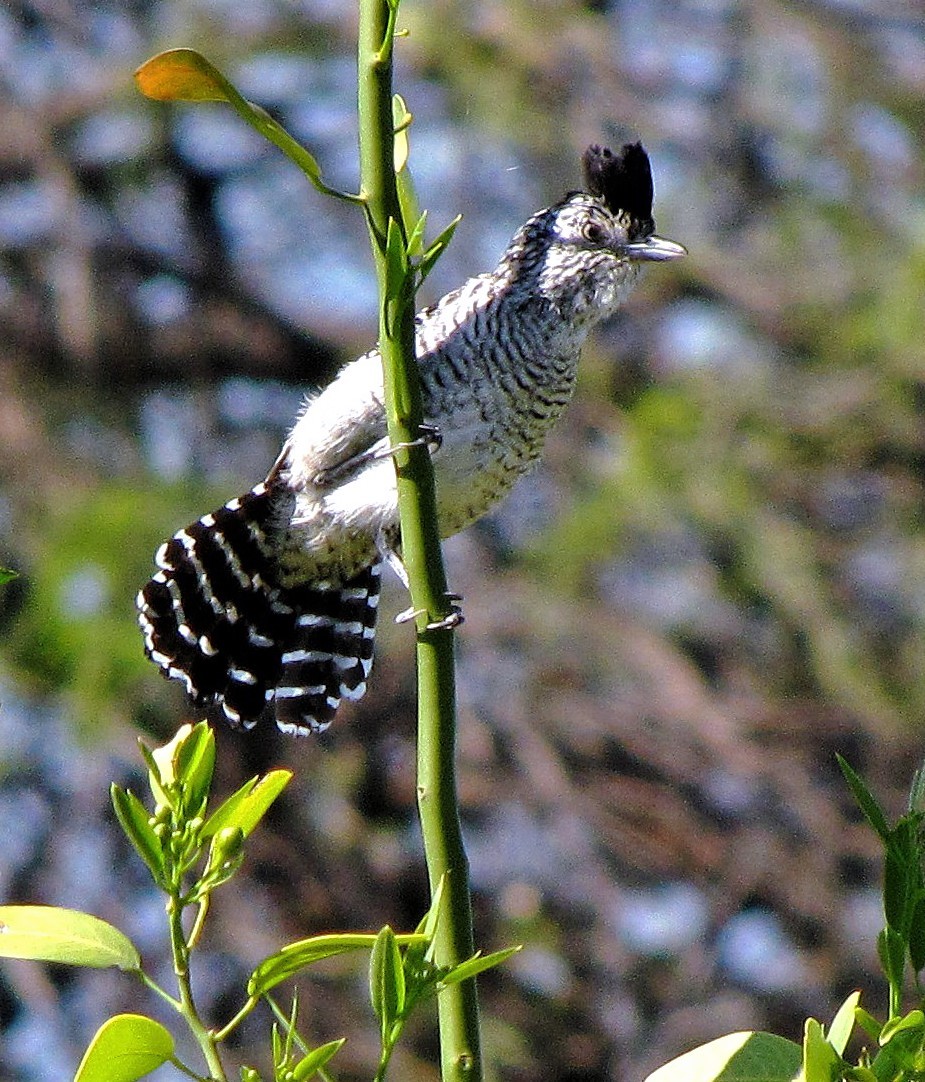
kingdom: Animalia
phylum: Chordata
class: Aves
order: Passeriformes
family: Thamnophilidae
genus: Thamnophilus
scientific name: Thamnophilus doliatus
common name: Barred antshrike
